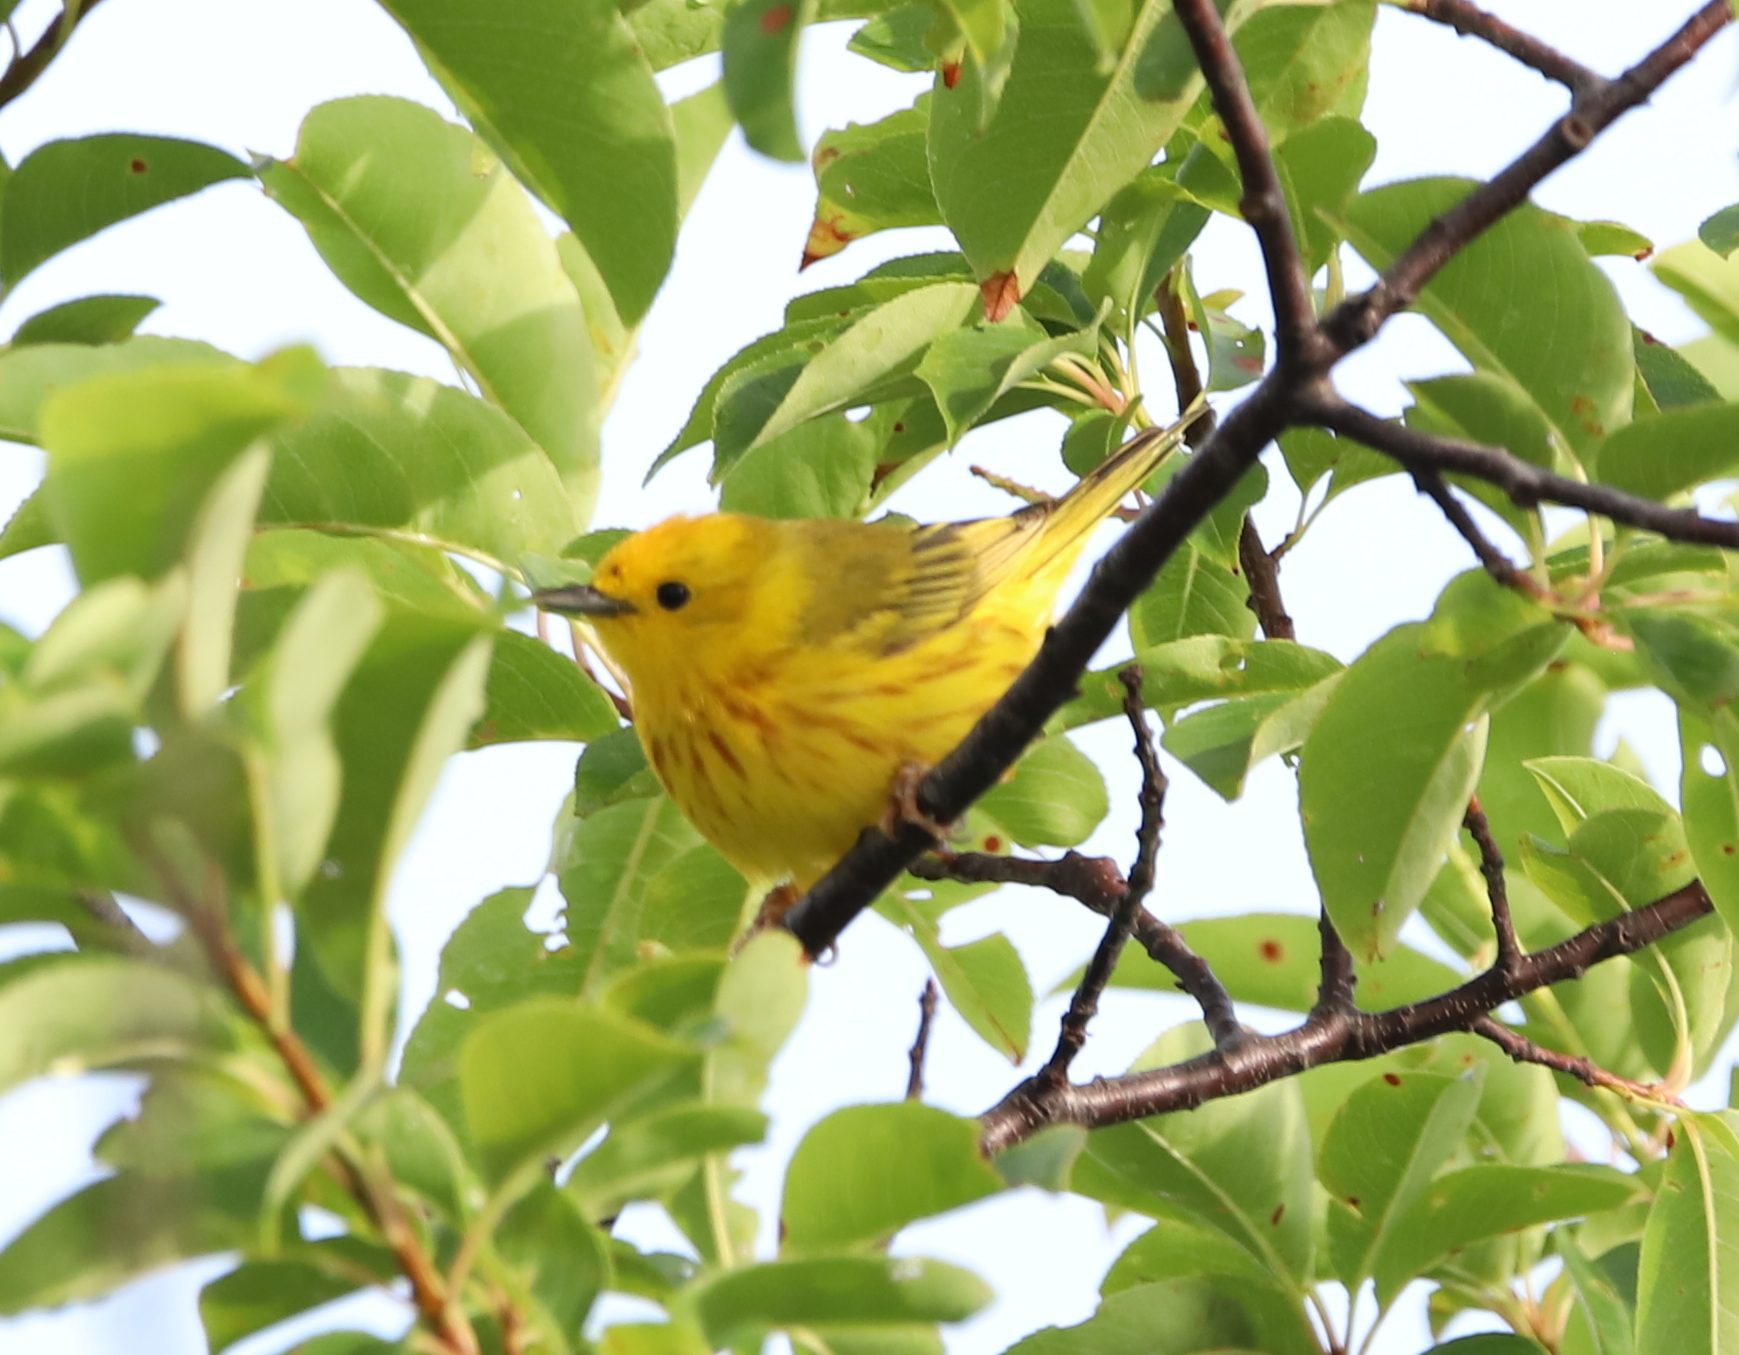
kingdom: Animalia
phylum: Chordata
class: Aves
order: Passeriformes
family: Parulidae
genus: Setophaga
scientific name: Setophaga petechia
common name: Yellow warbler
